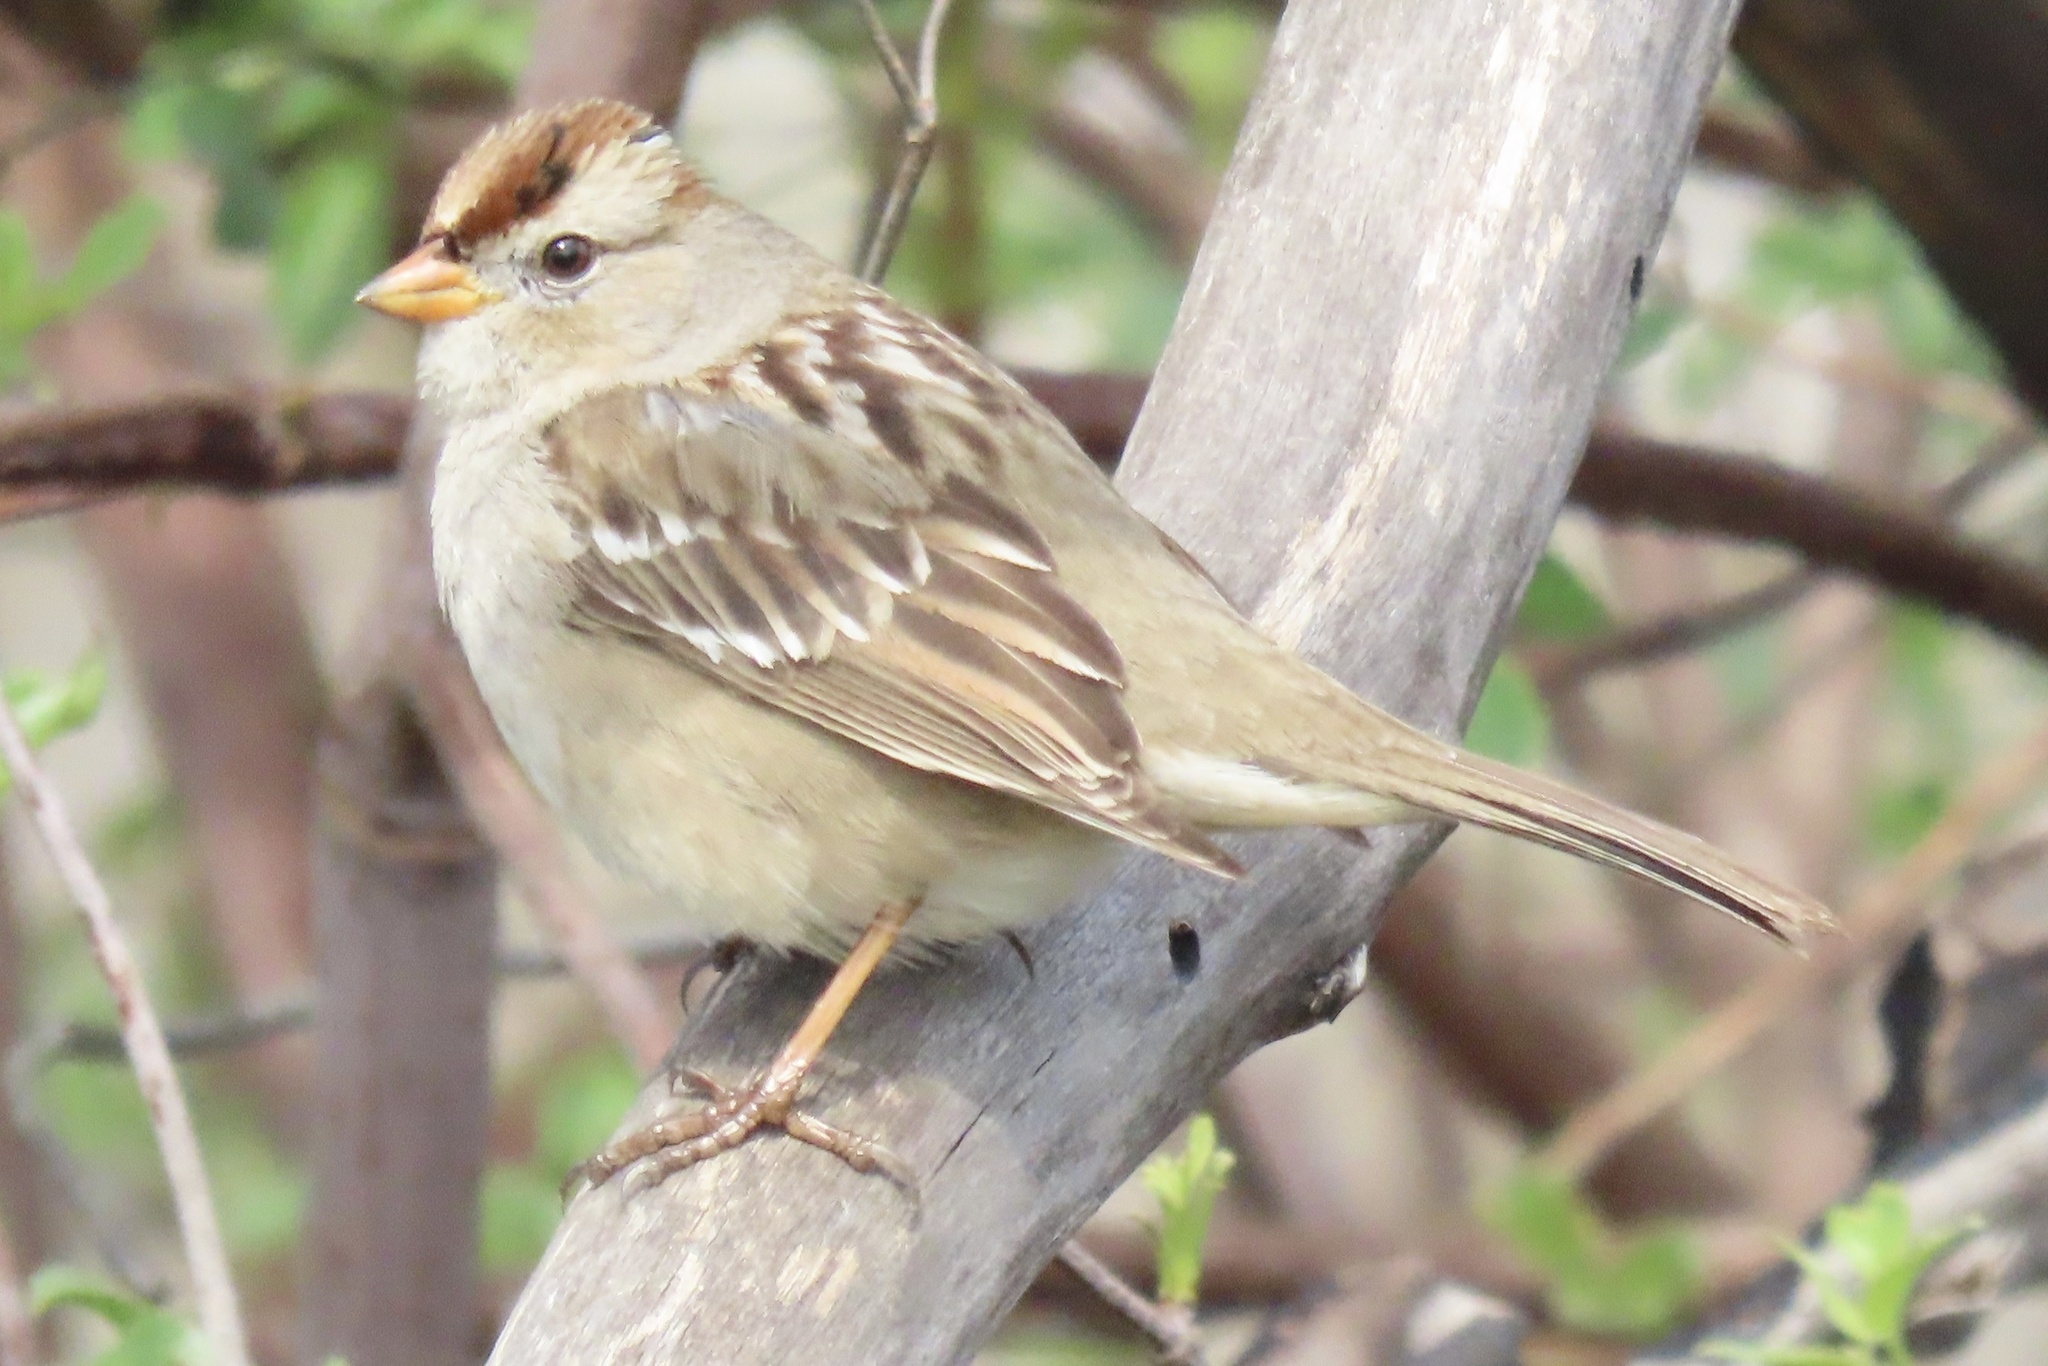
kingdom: Animalia
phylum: Chordata
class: Aves
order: Passeriformes
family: Passerellidae
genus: Zonotrichia
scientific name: Zonotrichia leucophrys
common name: White-crowned sparrow
